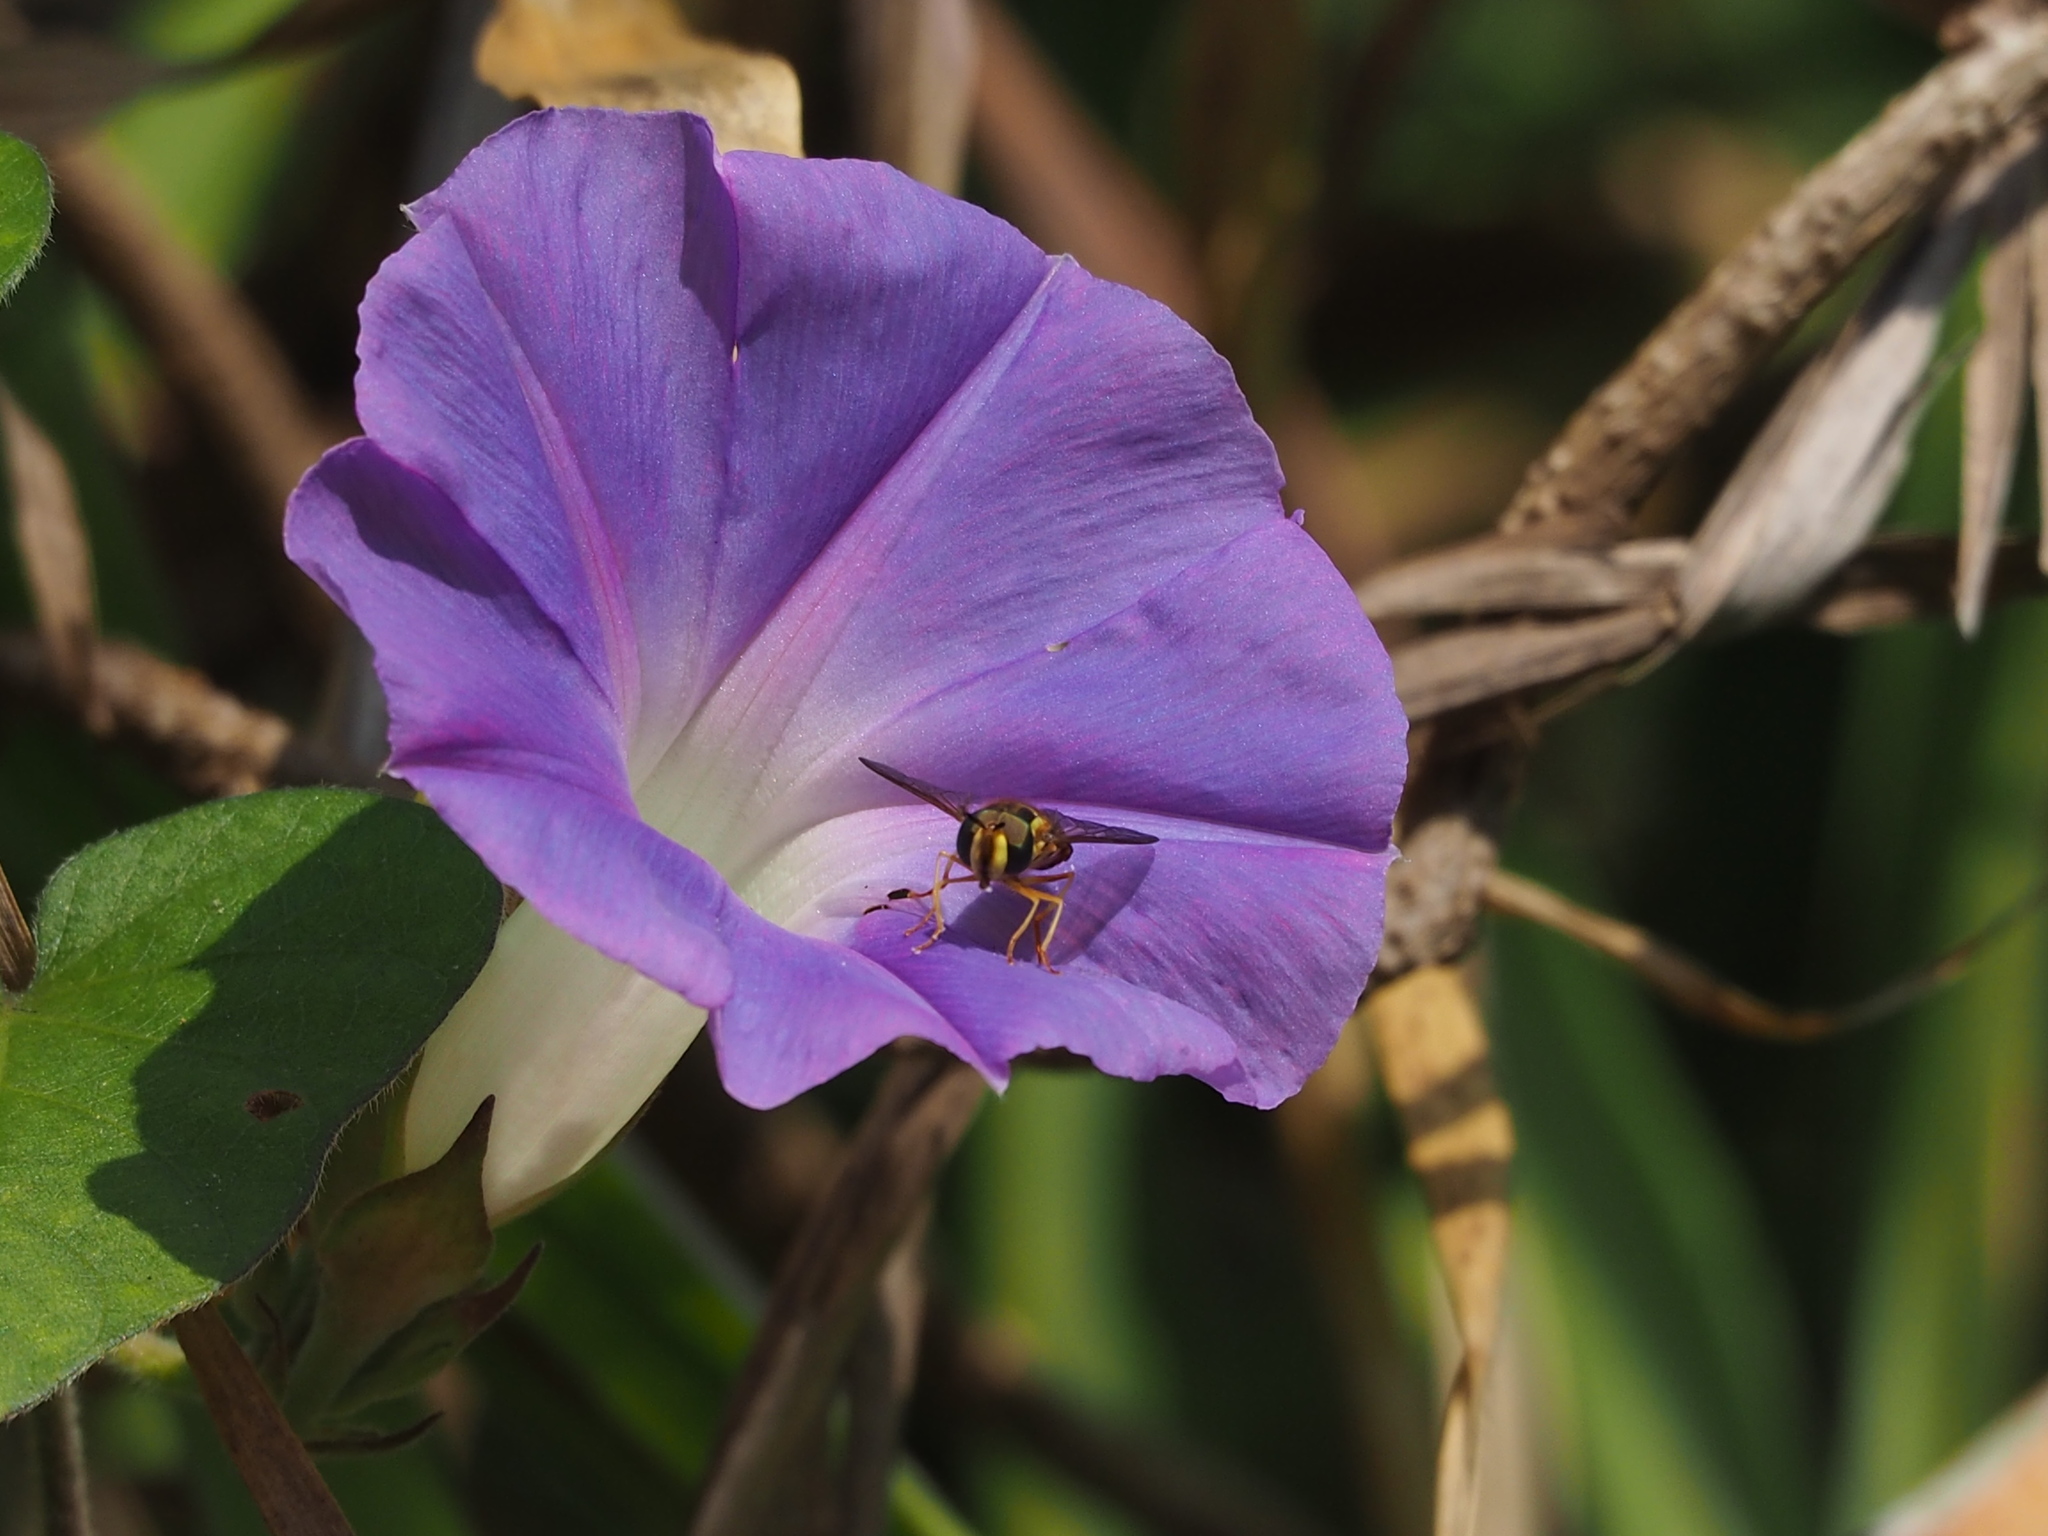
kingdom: Plantae
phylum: Tracheophyta
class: Magnoliopsida
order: Solanales
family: Convolvulaceae
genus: Ipomoea
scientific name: Ipomoea indica
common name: Blue dawnflower
